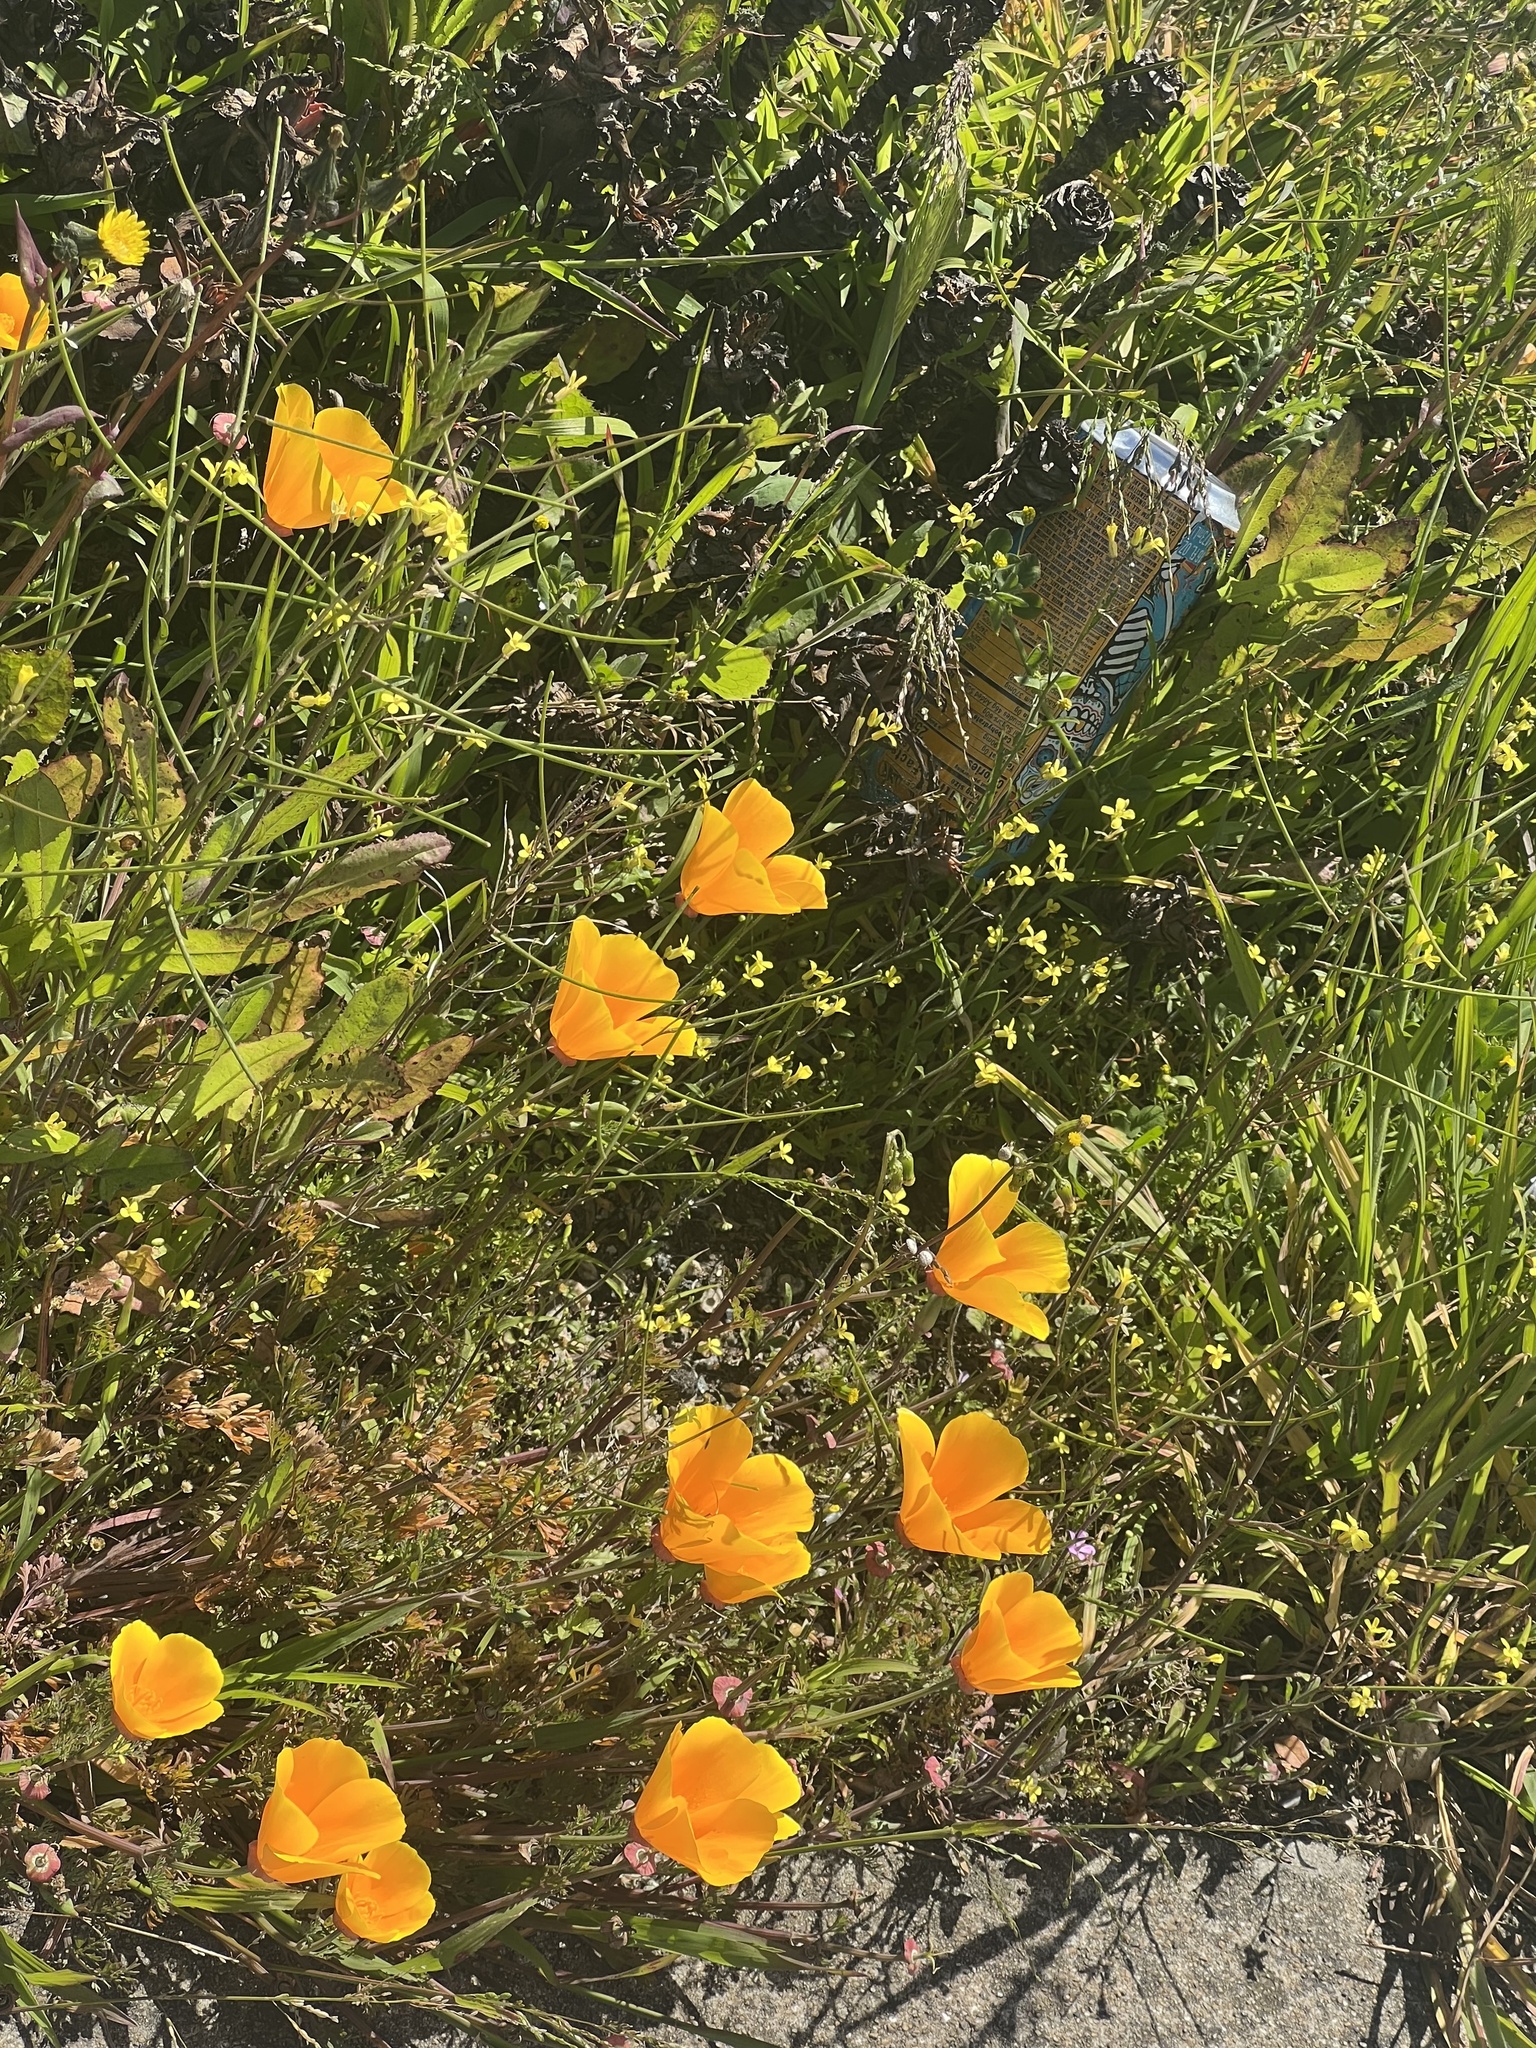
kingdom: Plantae
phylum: Tracheophyta
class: Magnoliopsida
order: Ranunculales
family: Papaveraceae
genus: Eschscholzia
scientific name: Eschscholzia californica
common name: California poppy
